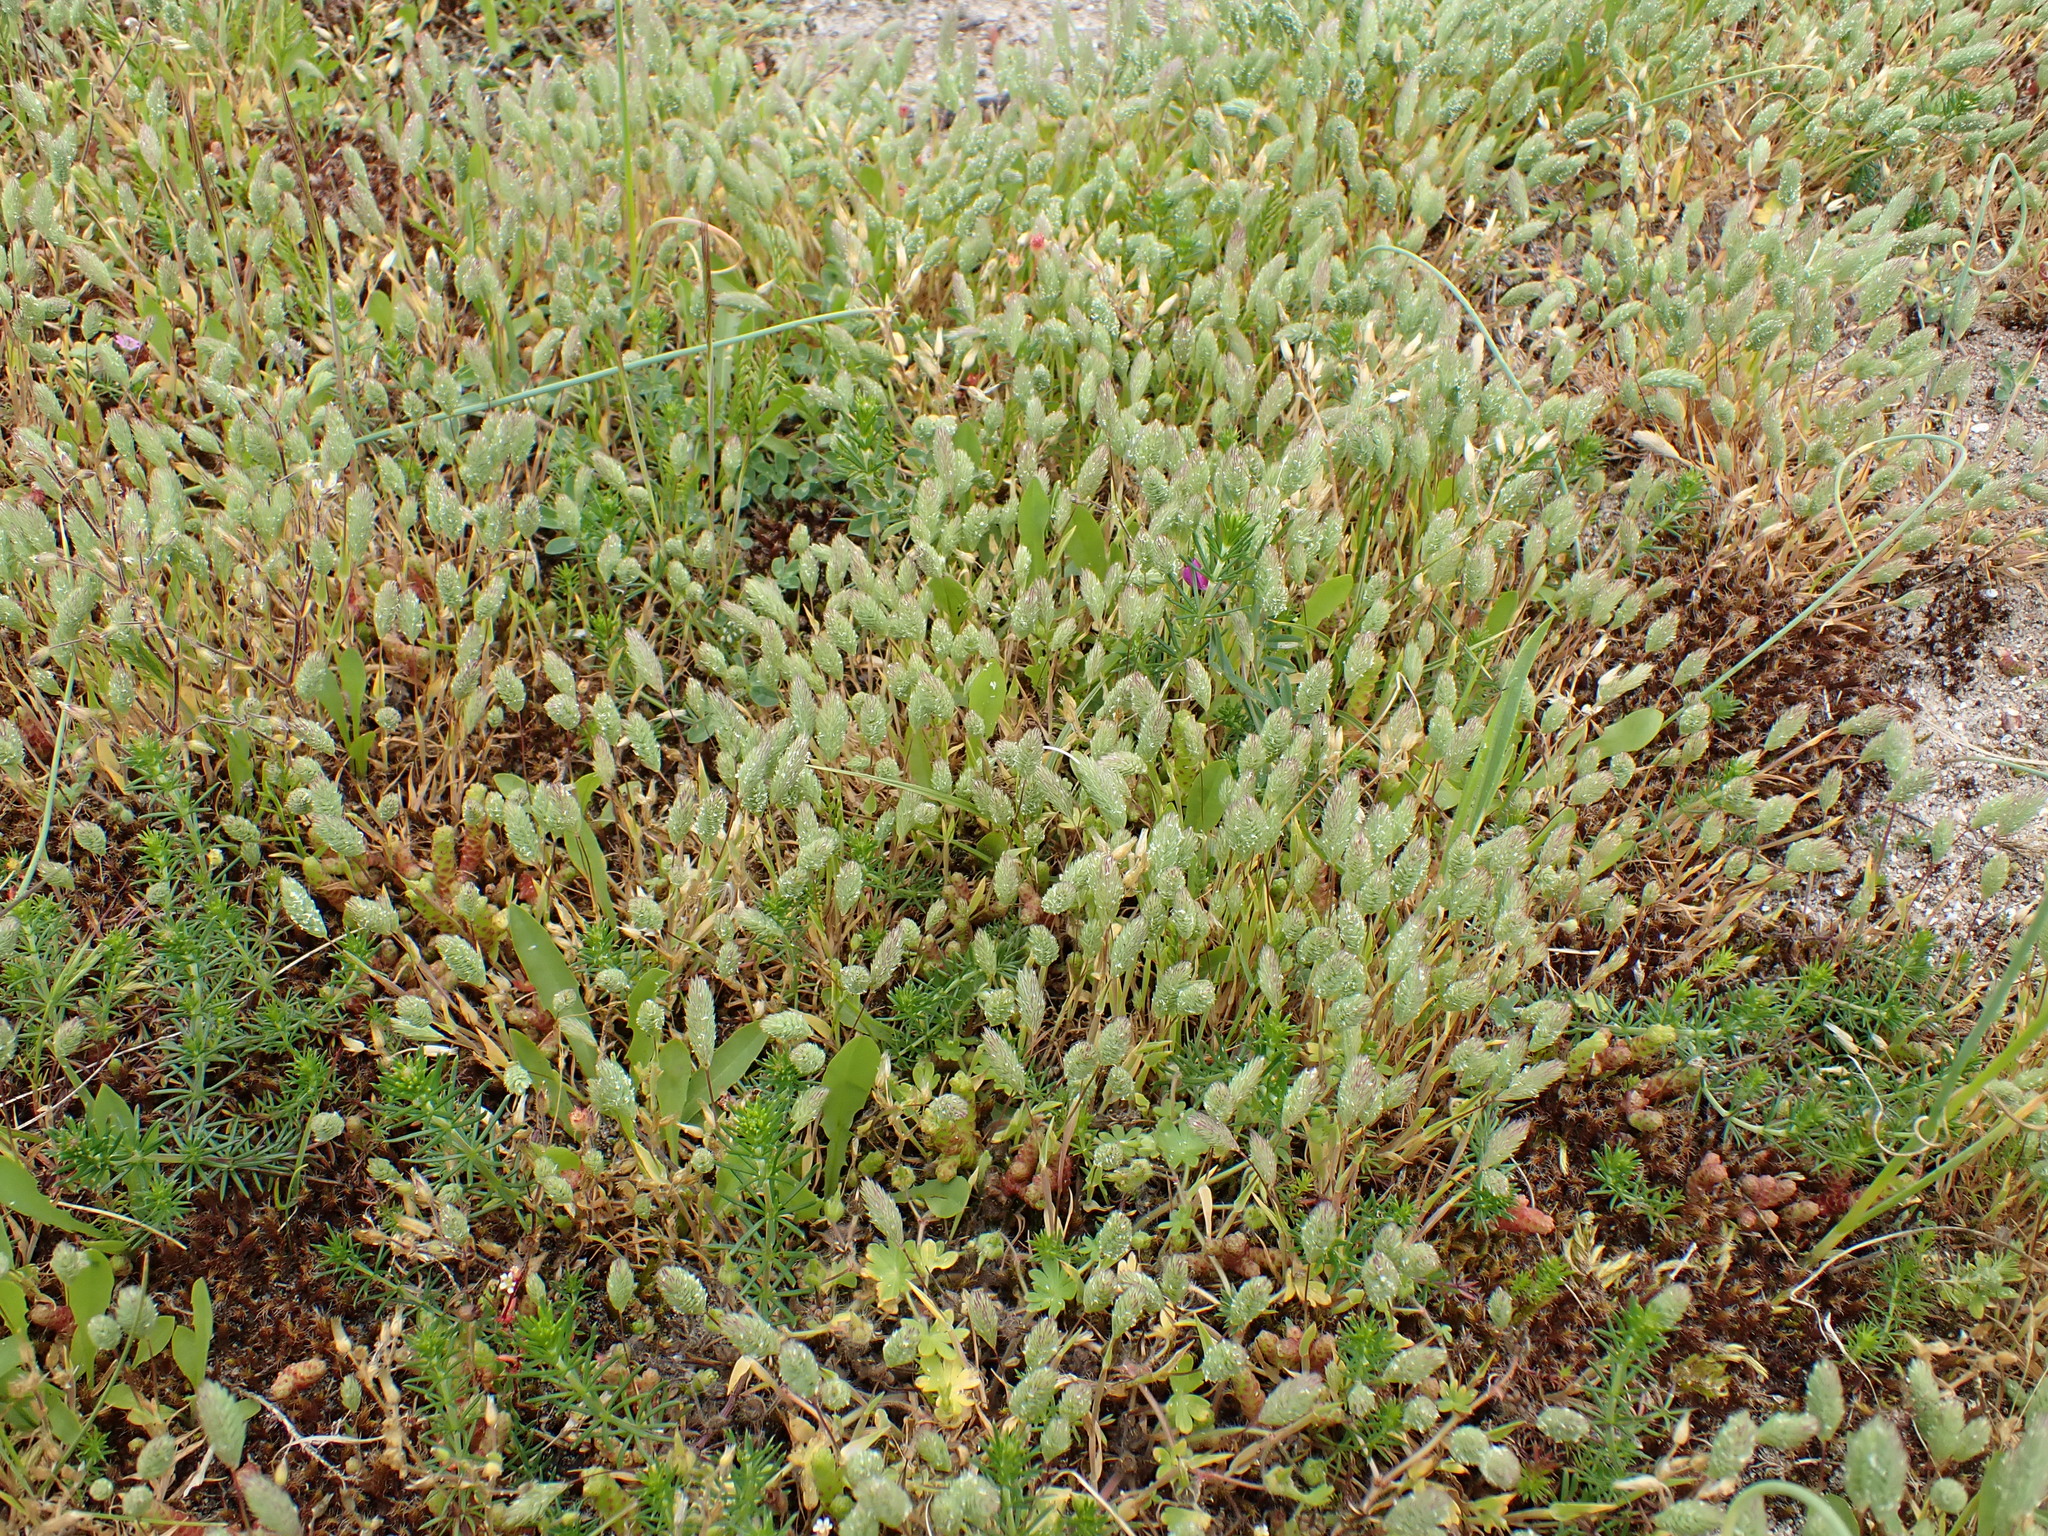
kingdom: Plantae
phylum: Tracheophyta
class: Liliopsida
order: Poales
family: Poaceae
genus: Phleum
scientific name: Phleum arenarium
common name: Sand cat's-tail
